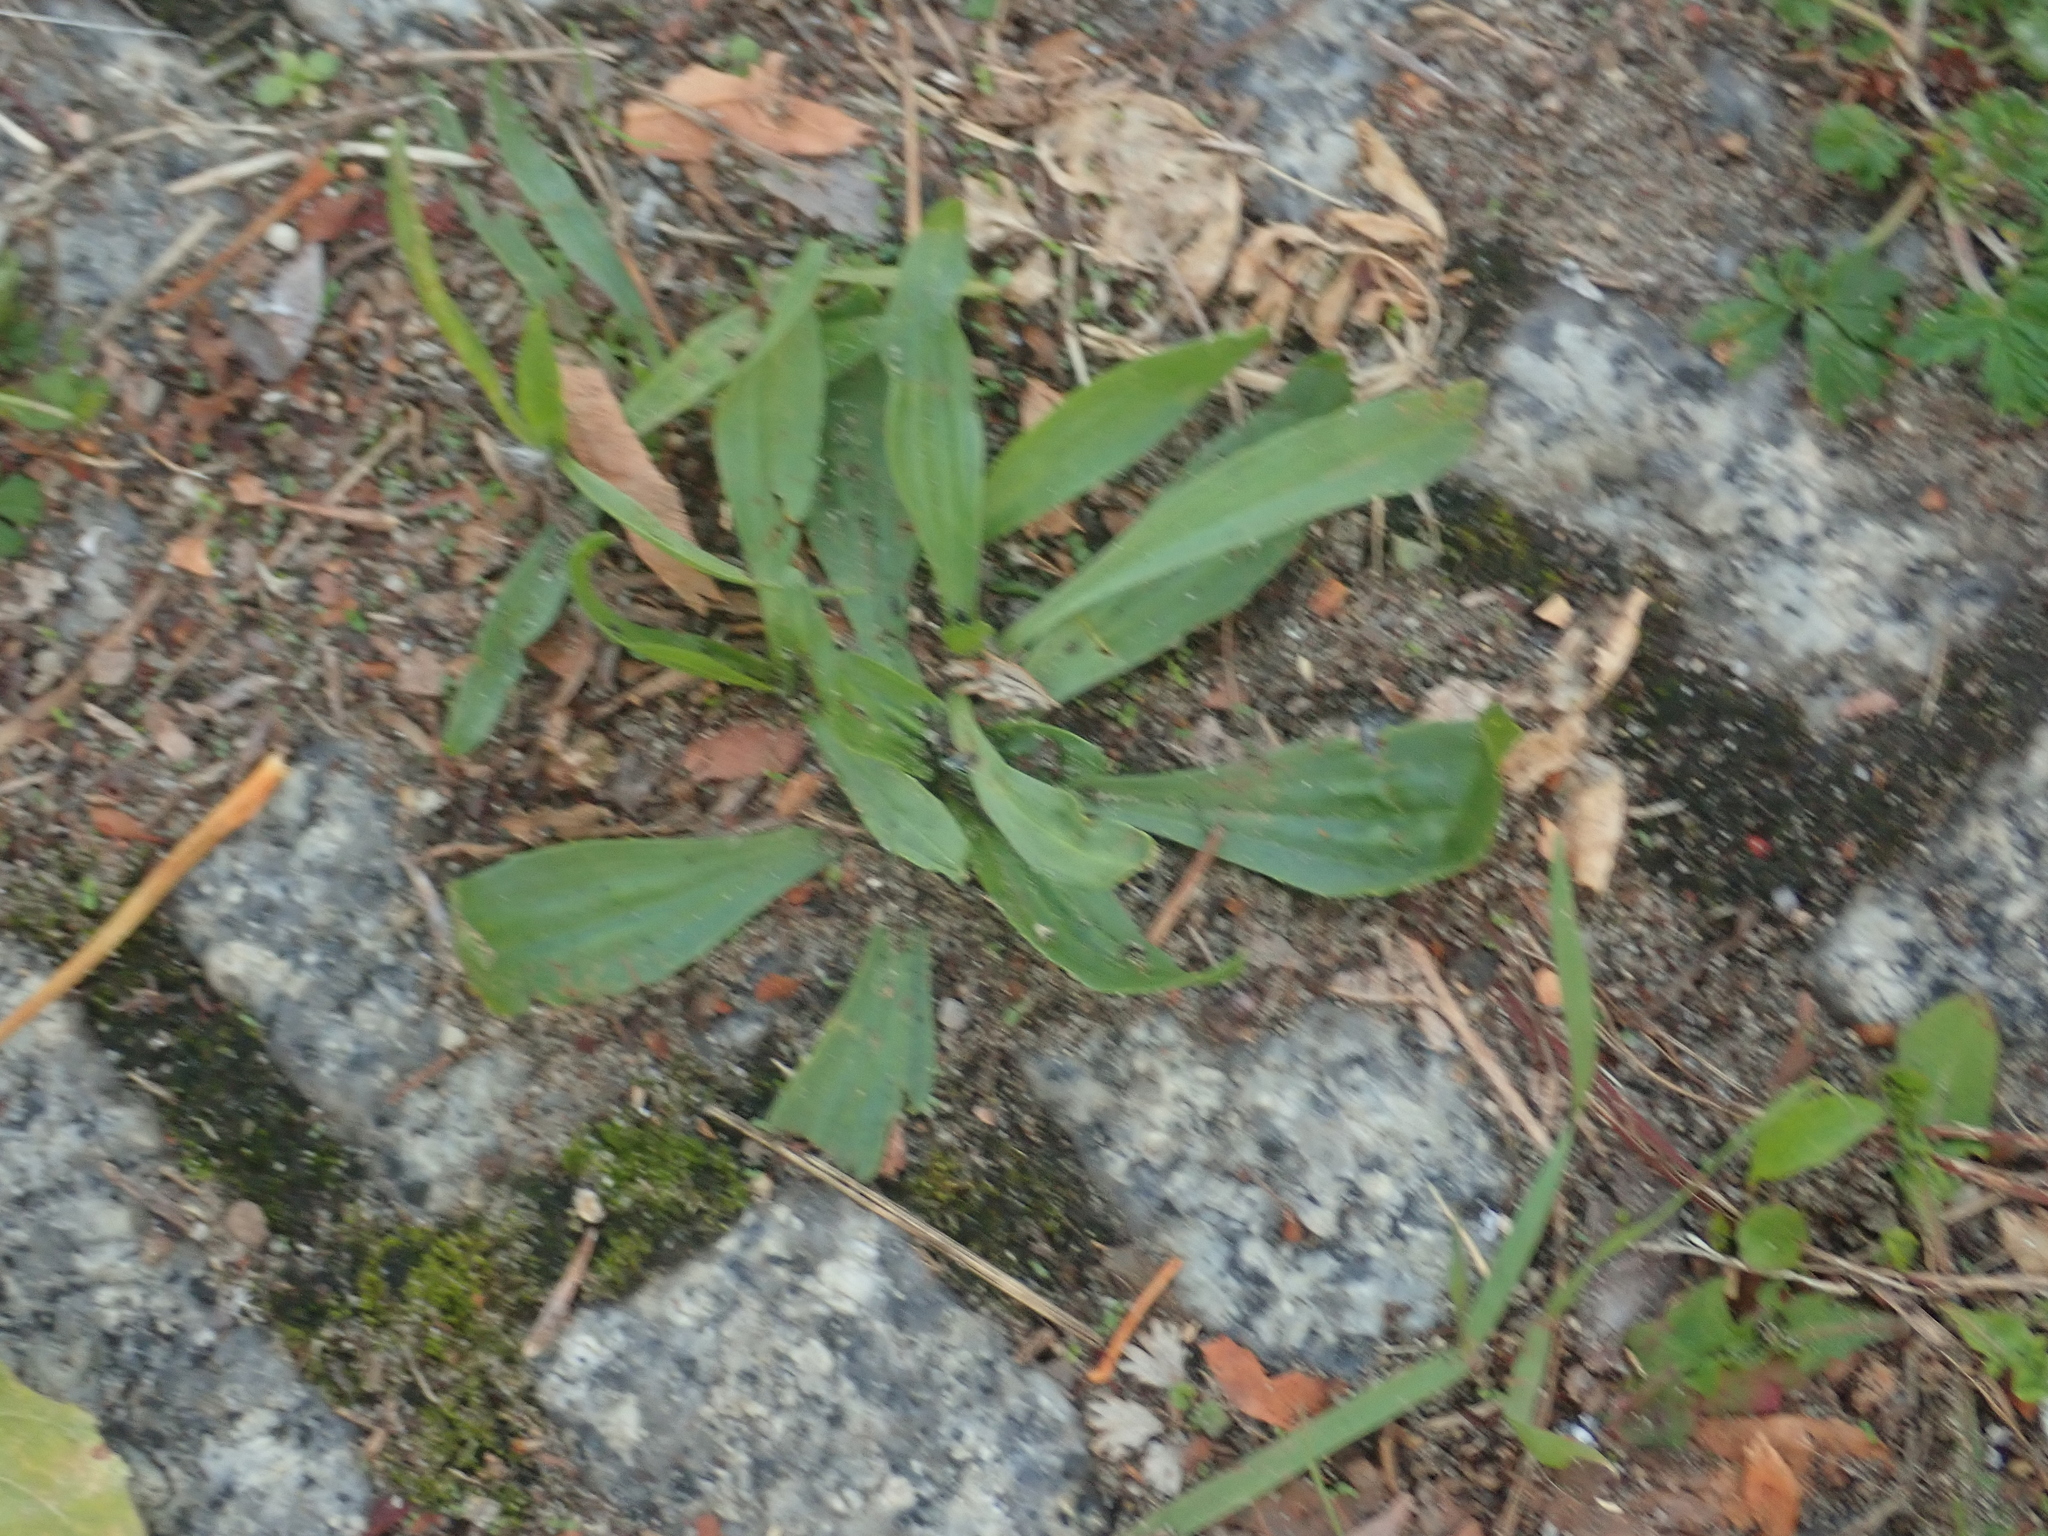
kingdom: Plantae
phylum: Tracheophyta
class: Magnoliopsida
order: Lamiales
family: Plantaginaceae
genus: Plantago
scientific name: Plantago lanceolata
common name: Ribwort plantain
